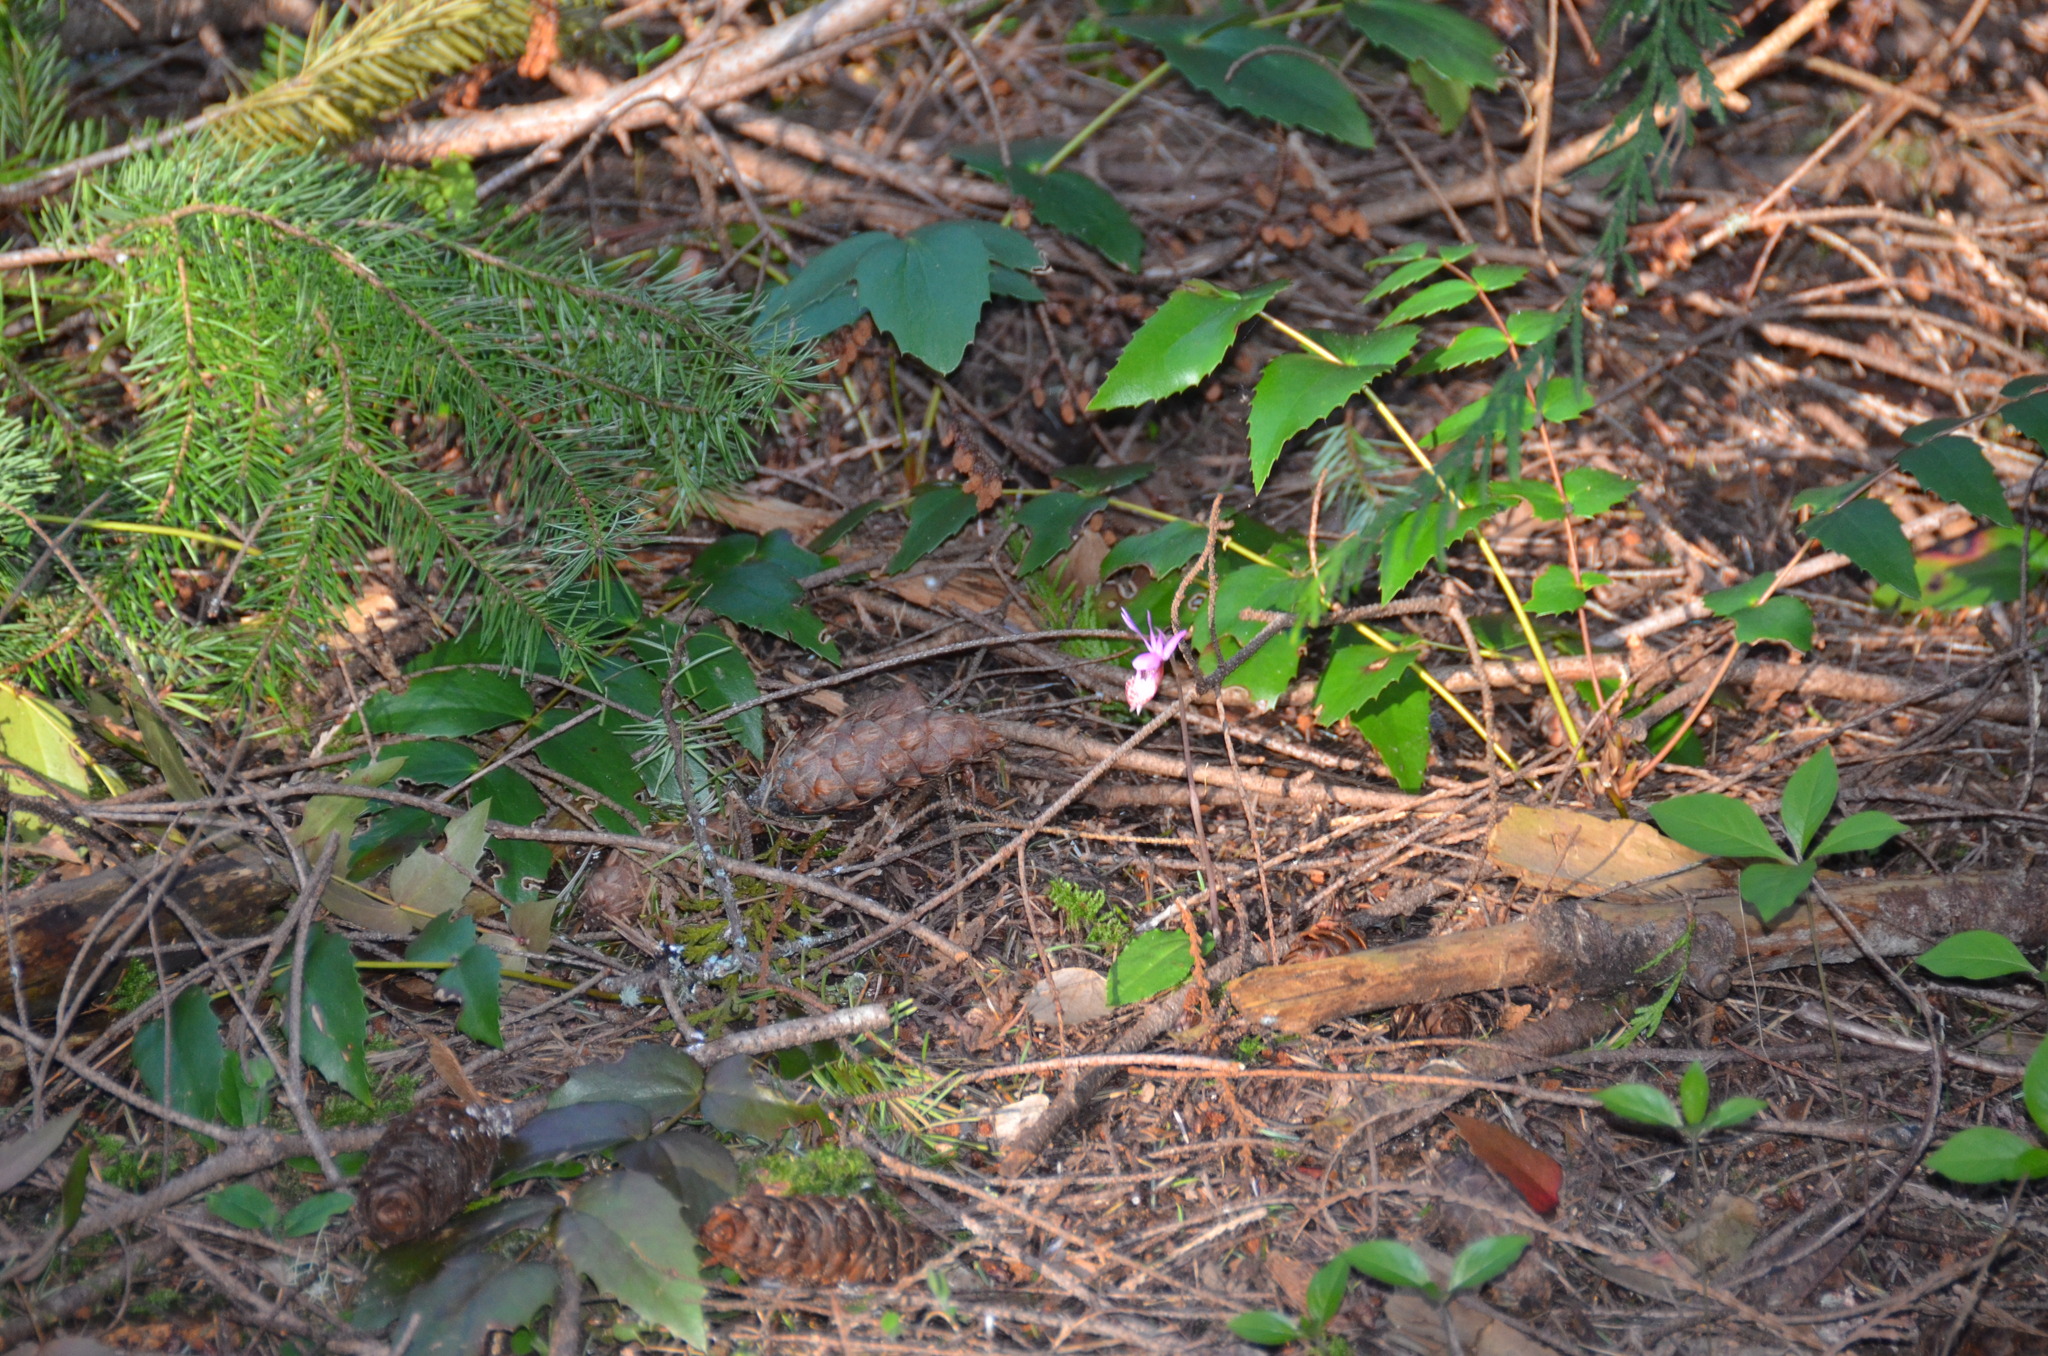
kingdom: Plantae
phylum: Tracheophyta
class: Liliopsida
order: Asparagales
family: Orchidaceae
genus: Calypso
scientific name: Calypso bulbosa
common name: Calypso
